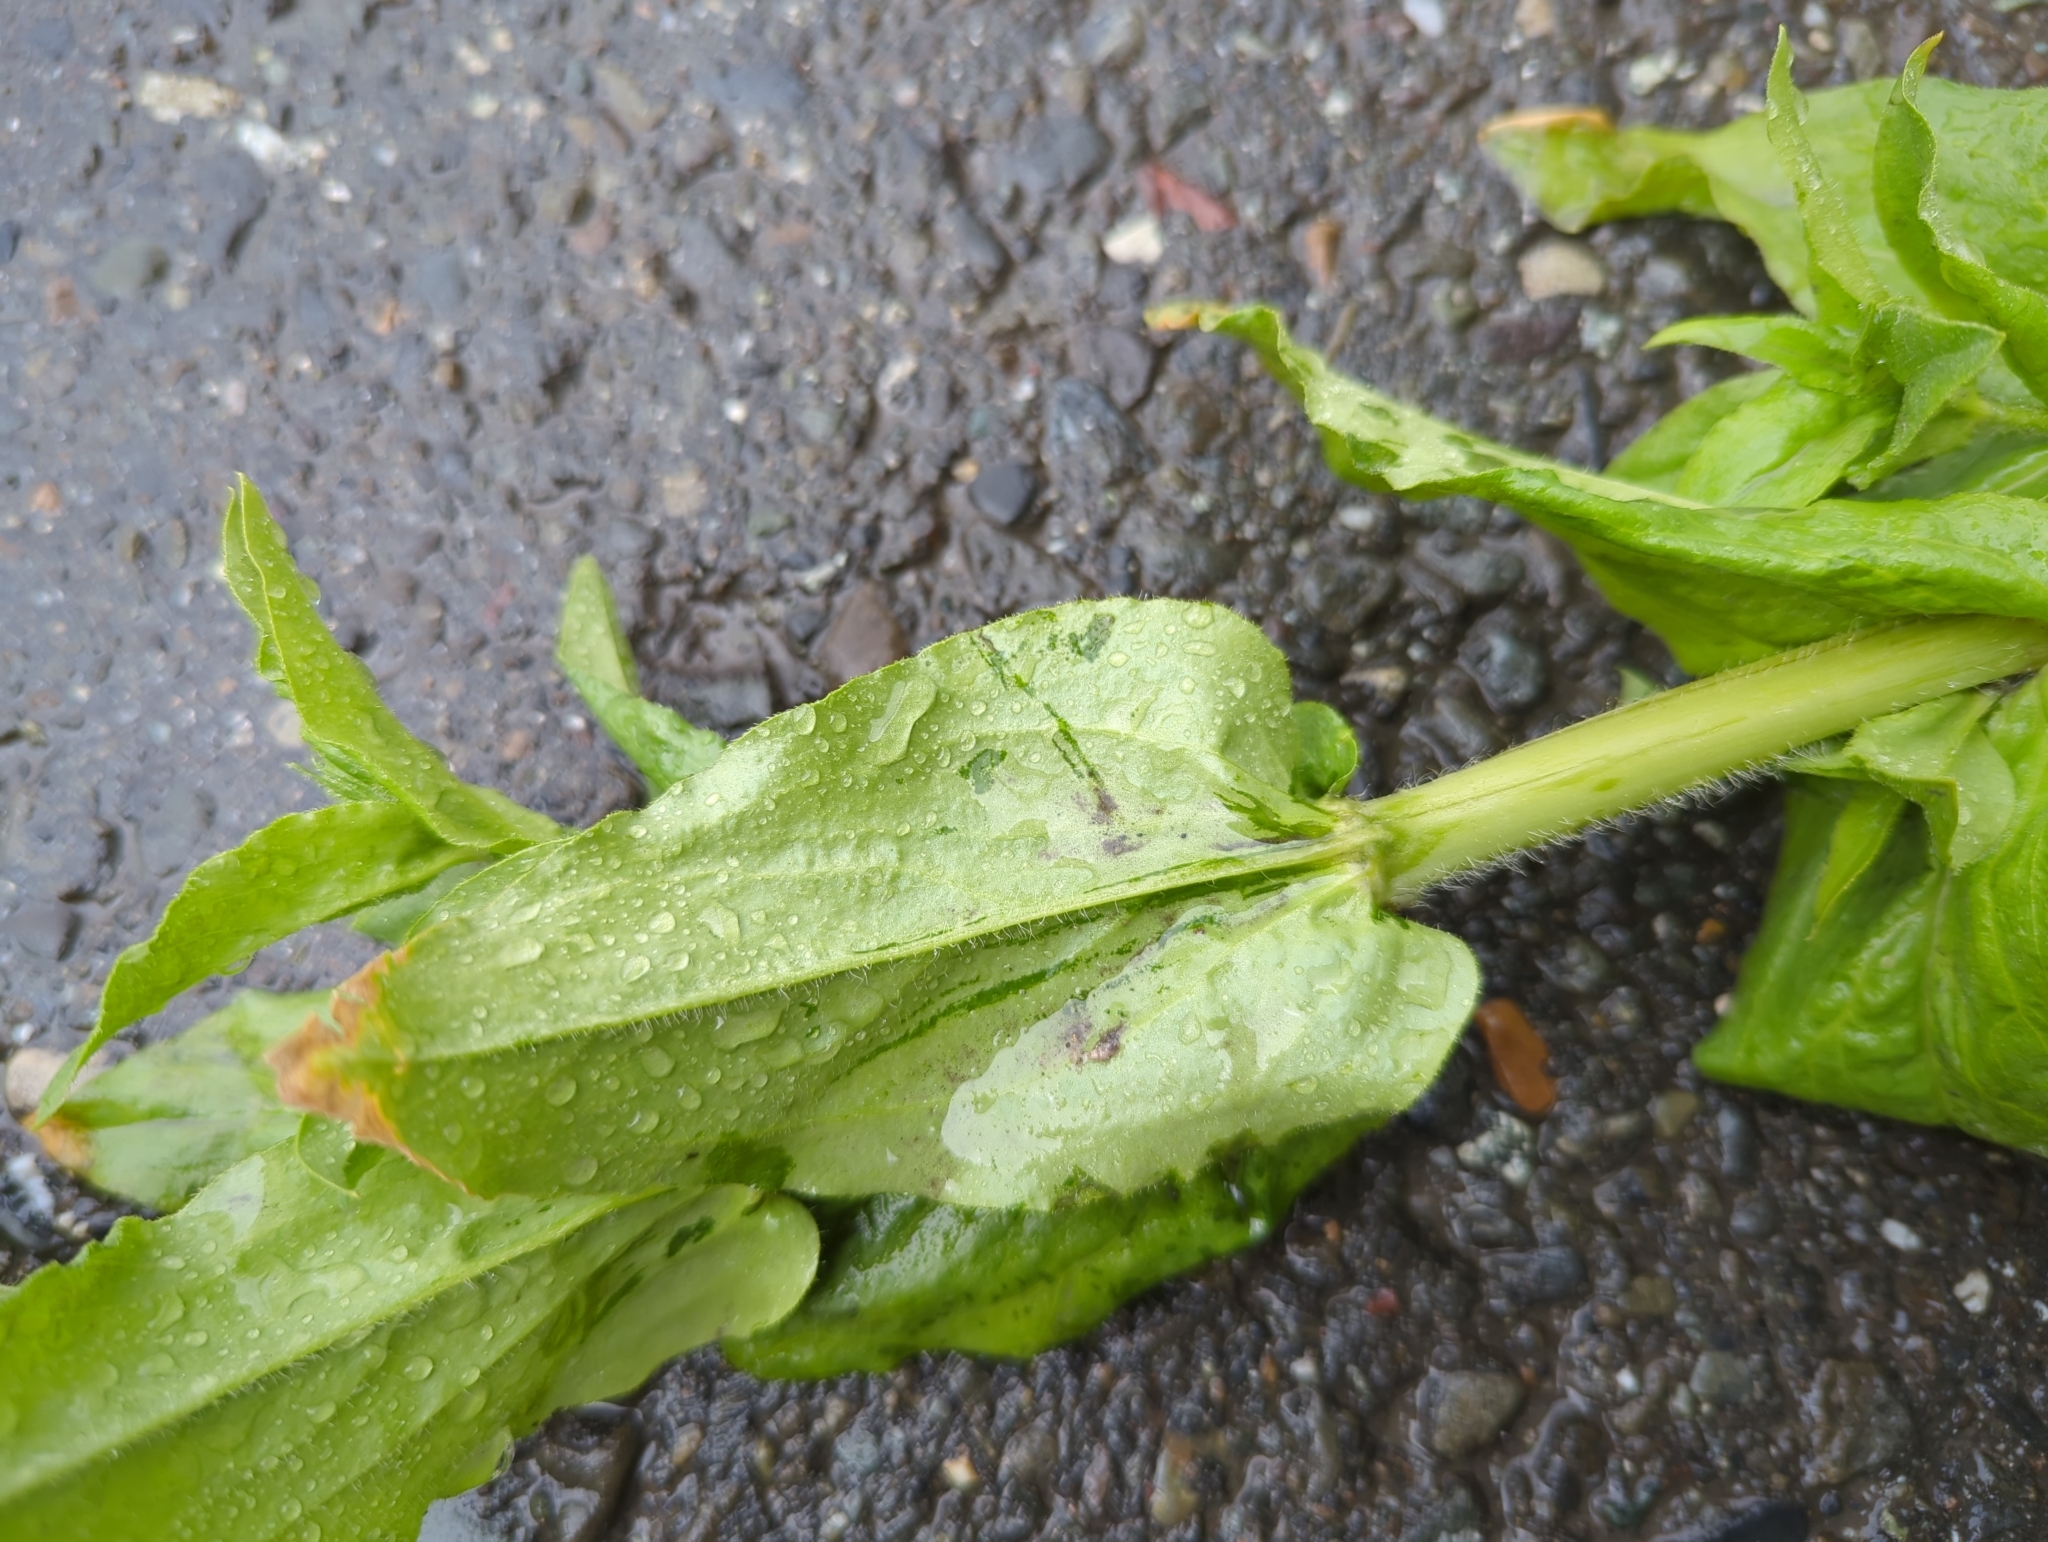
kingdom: Plantae
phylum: Tracheophyta
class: Magnoliopsida
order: Caryophyllales
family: Caryophyllaceae
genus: Silene
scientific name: Silene chalcedonica
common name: Maltese-cross
